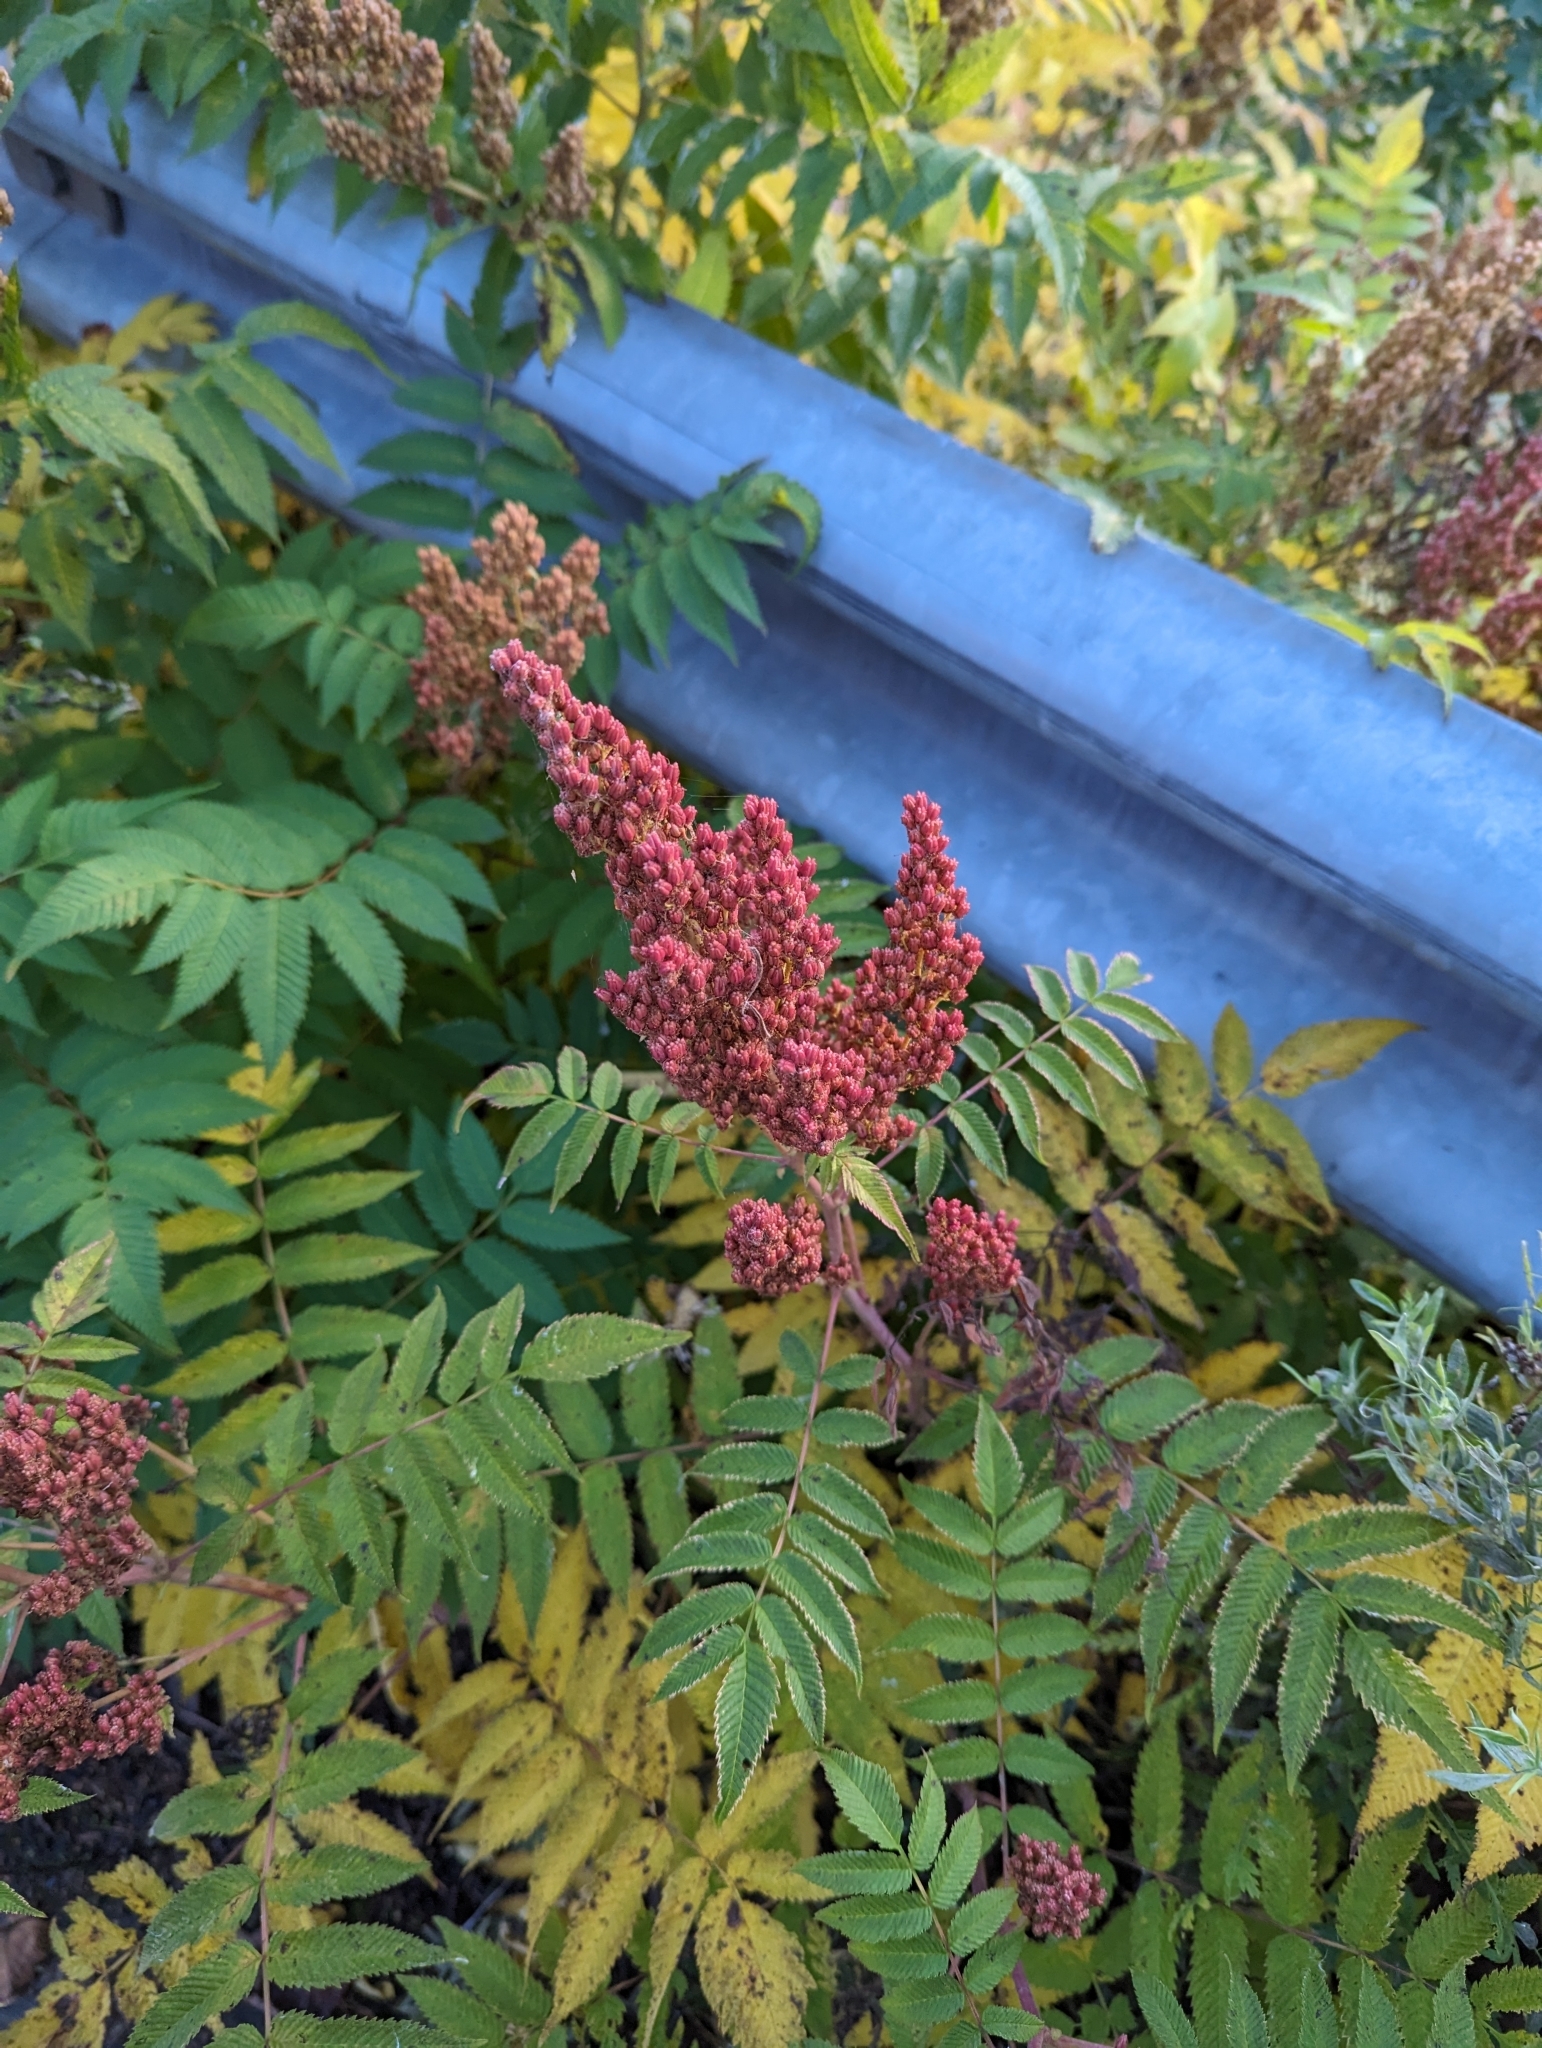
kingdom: Plantae
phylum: Tracheophyta
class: Magnoliopsida
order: Rosales
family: Rosaceae
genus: Sorbaria
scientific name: Sorbaria sorbifolia
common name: False spiraea
